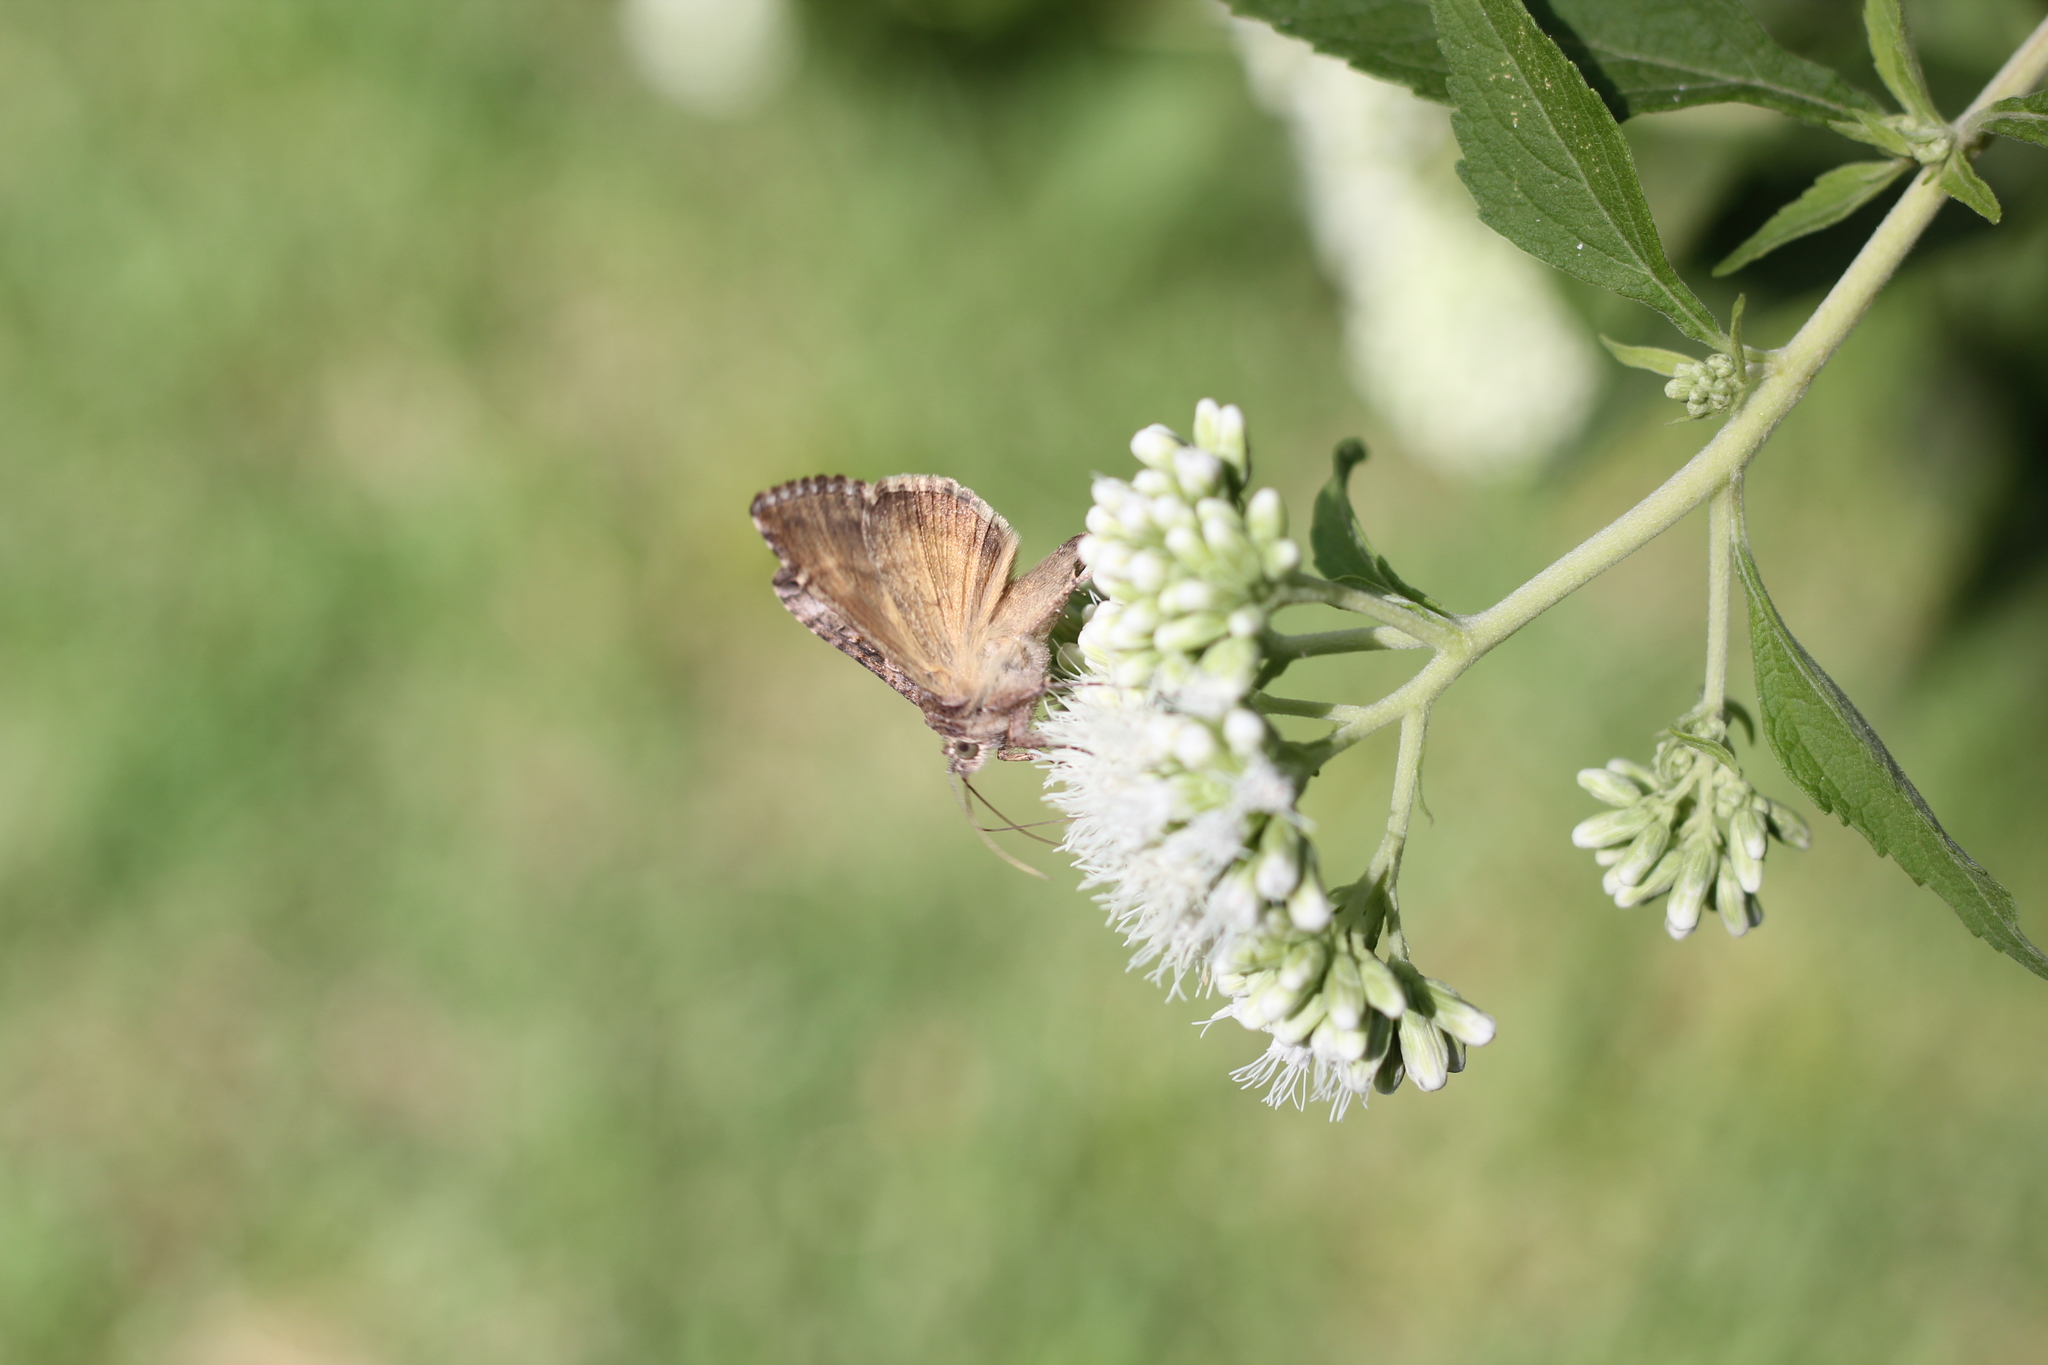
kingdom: Animalia
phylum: Arthropoda
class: Insecta
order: Lepidoptera
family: Noctuidae
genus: Rachiplusia
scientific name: Rachiplusia nu
